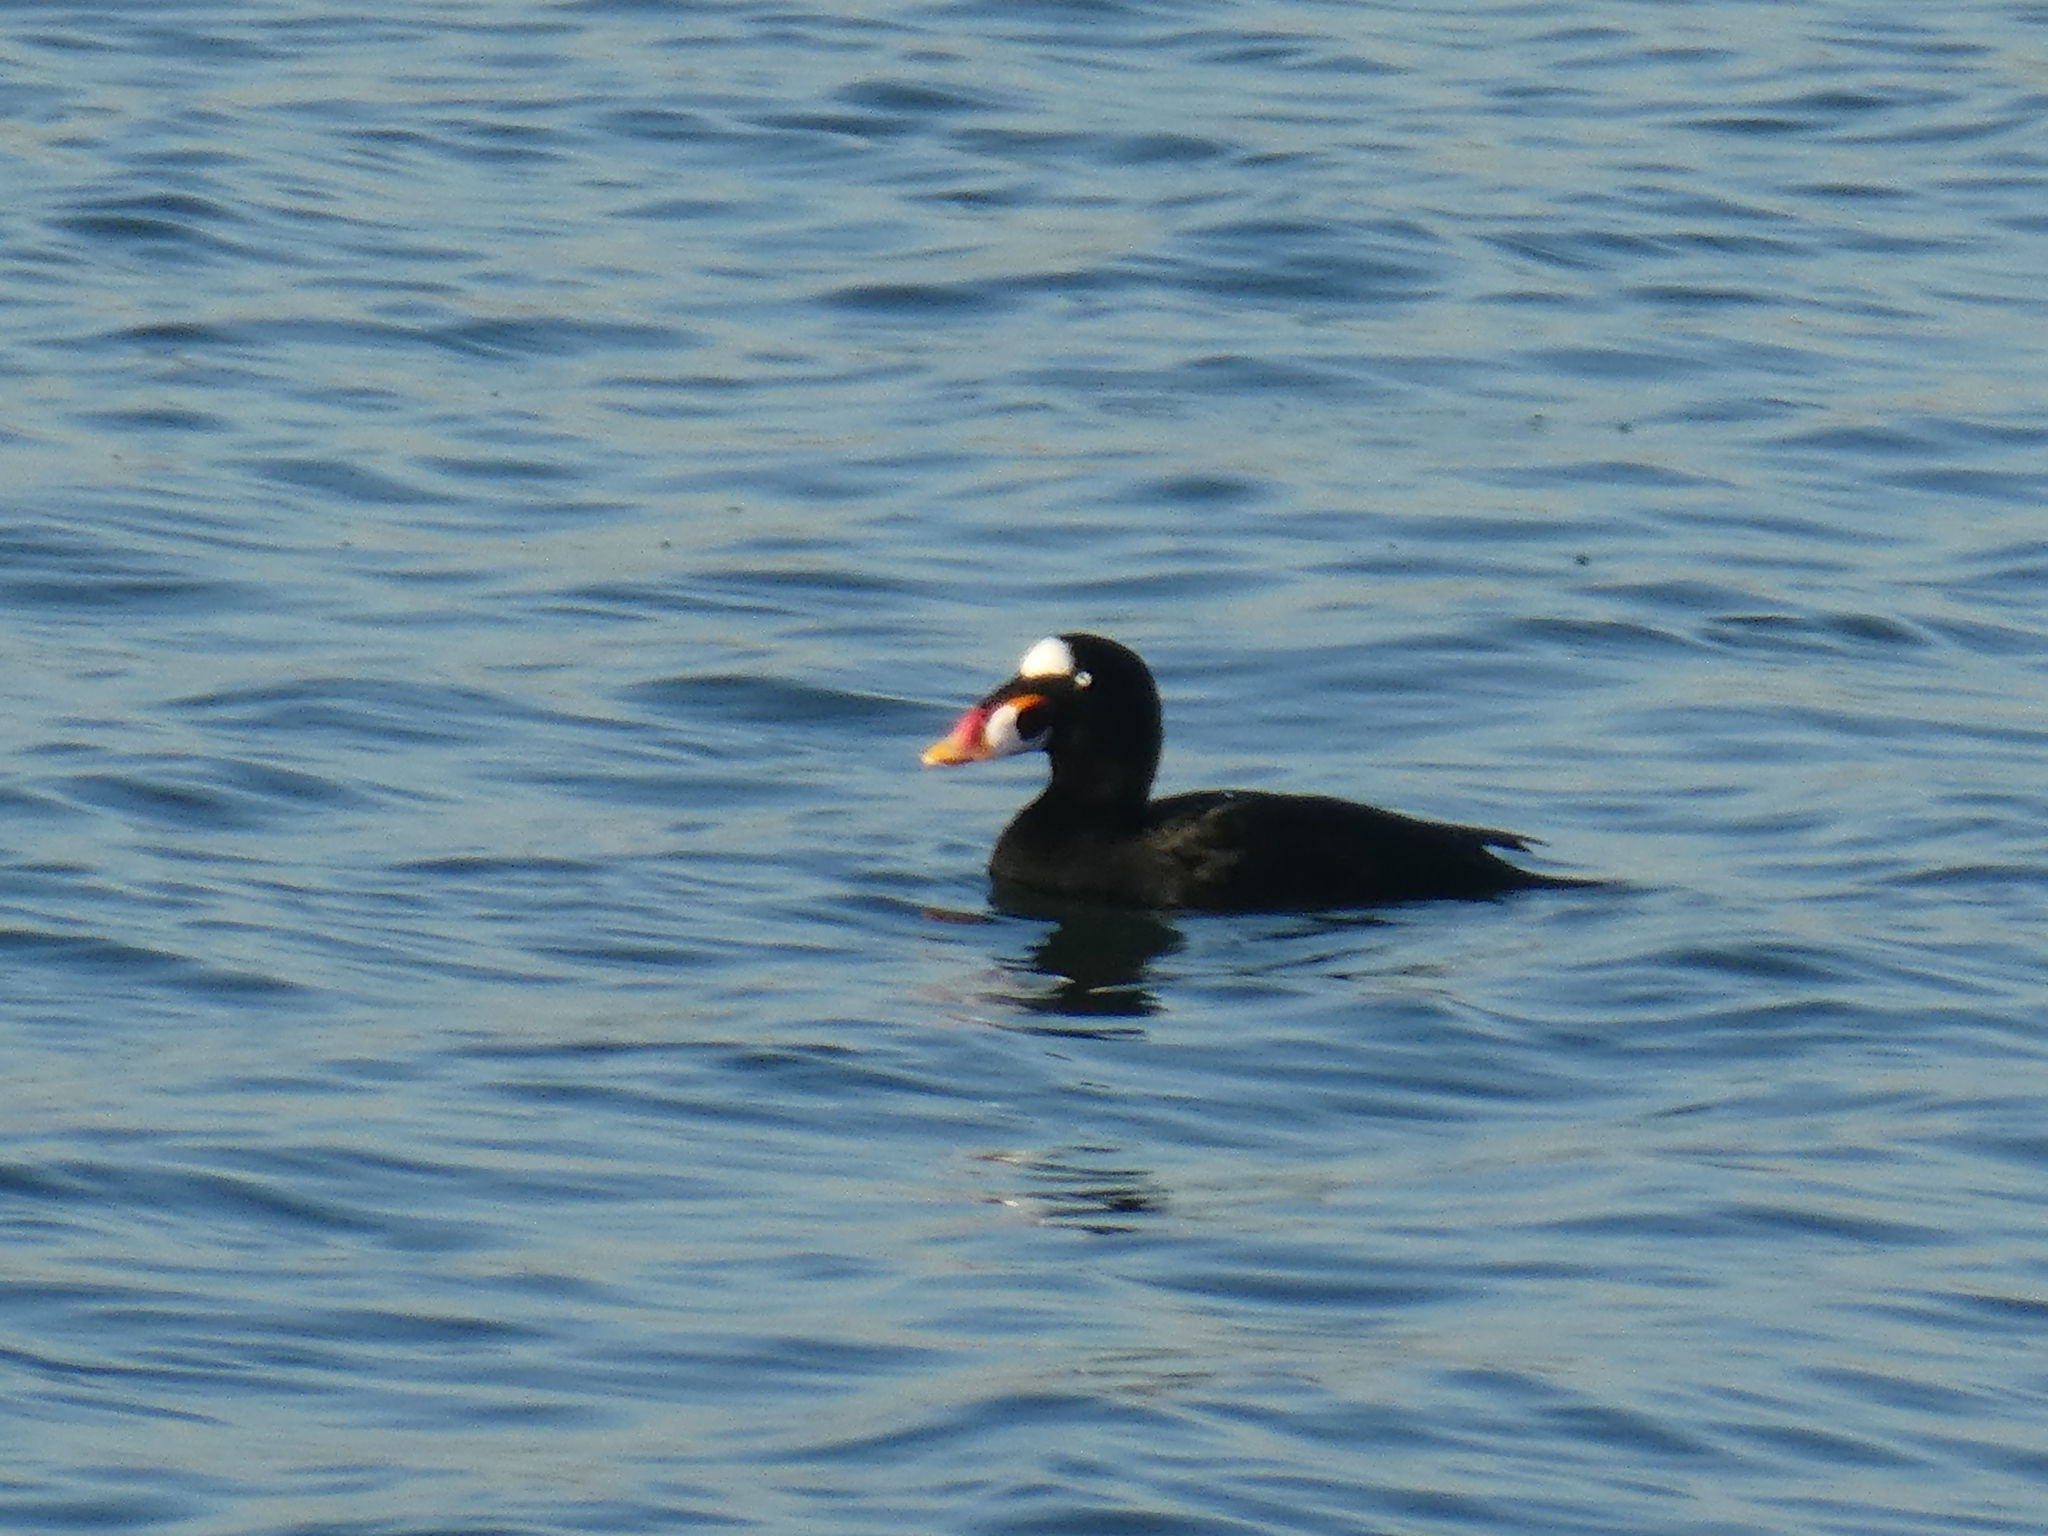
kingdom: Animalia
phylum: Chordata
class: Aves
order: Anseriformes
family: Anatidae
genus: Melanitta
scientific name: Melanitta perspicillata
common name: Surf scoter
